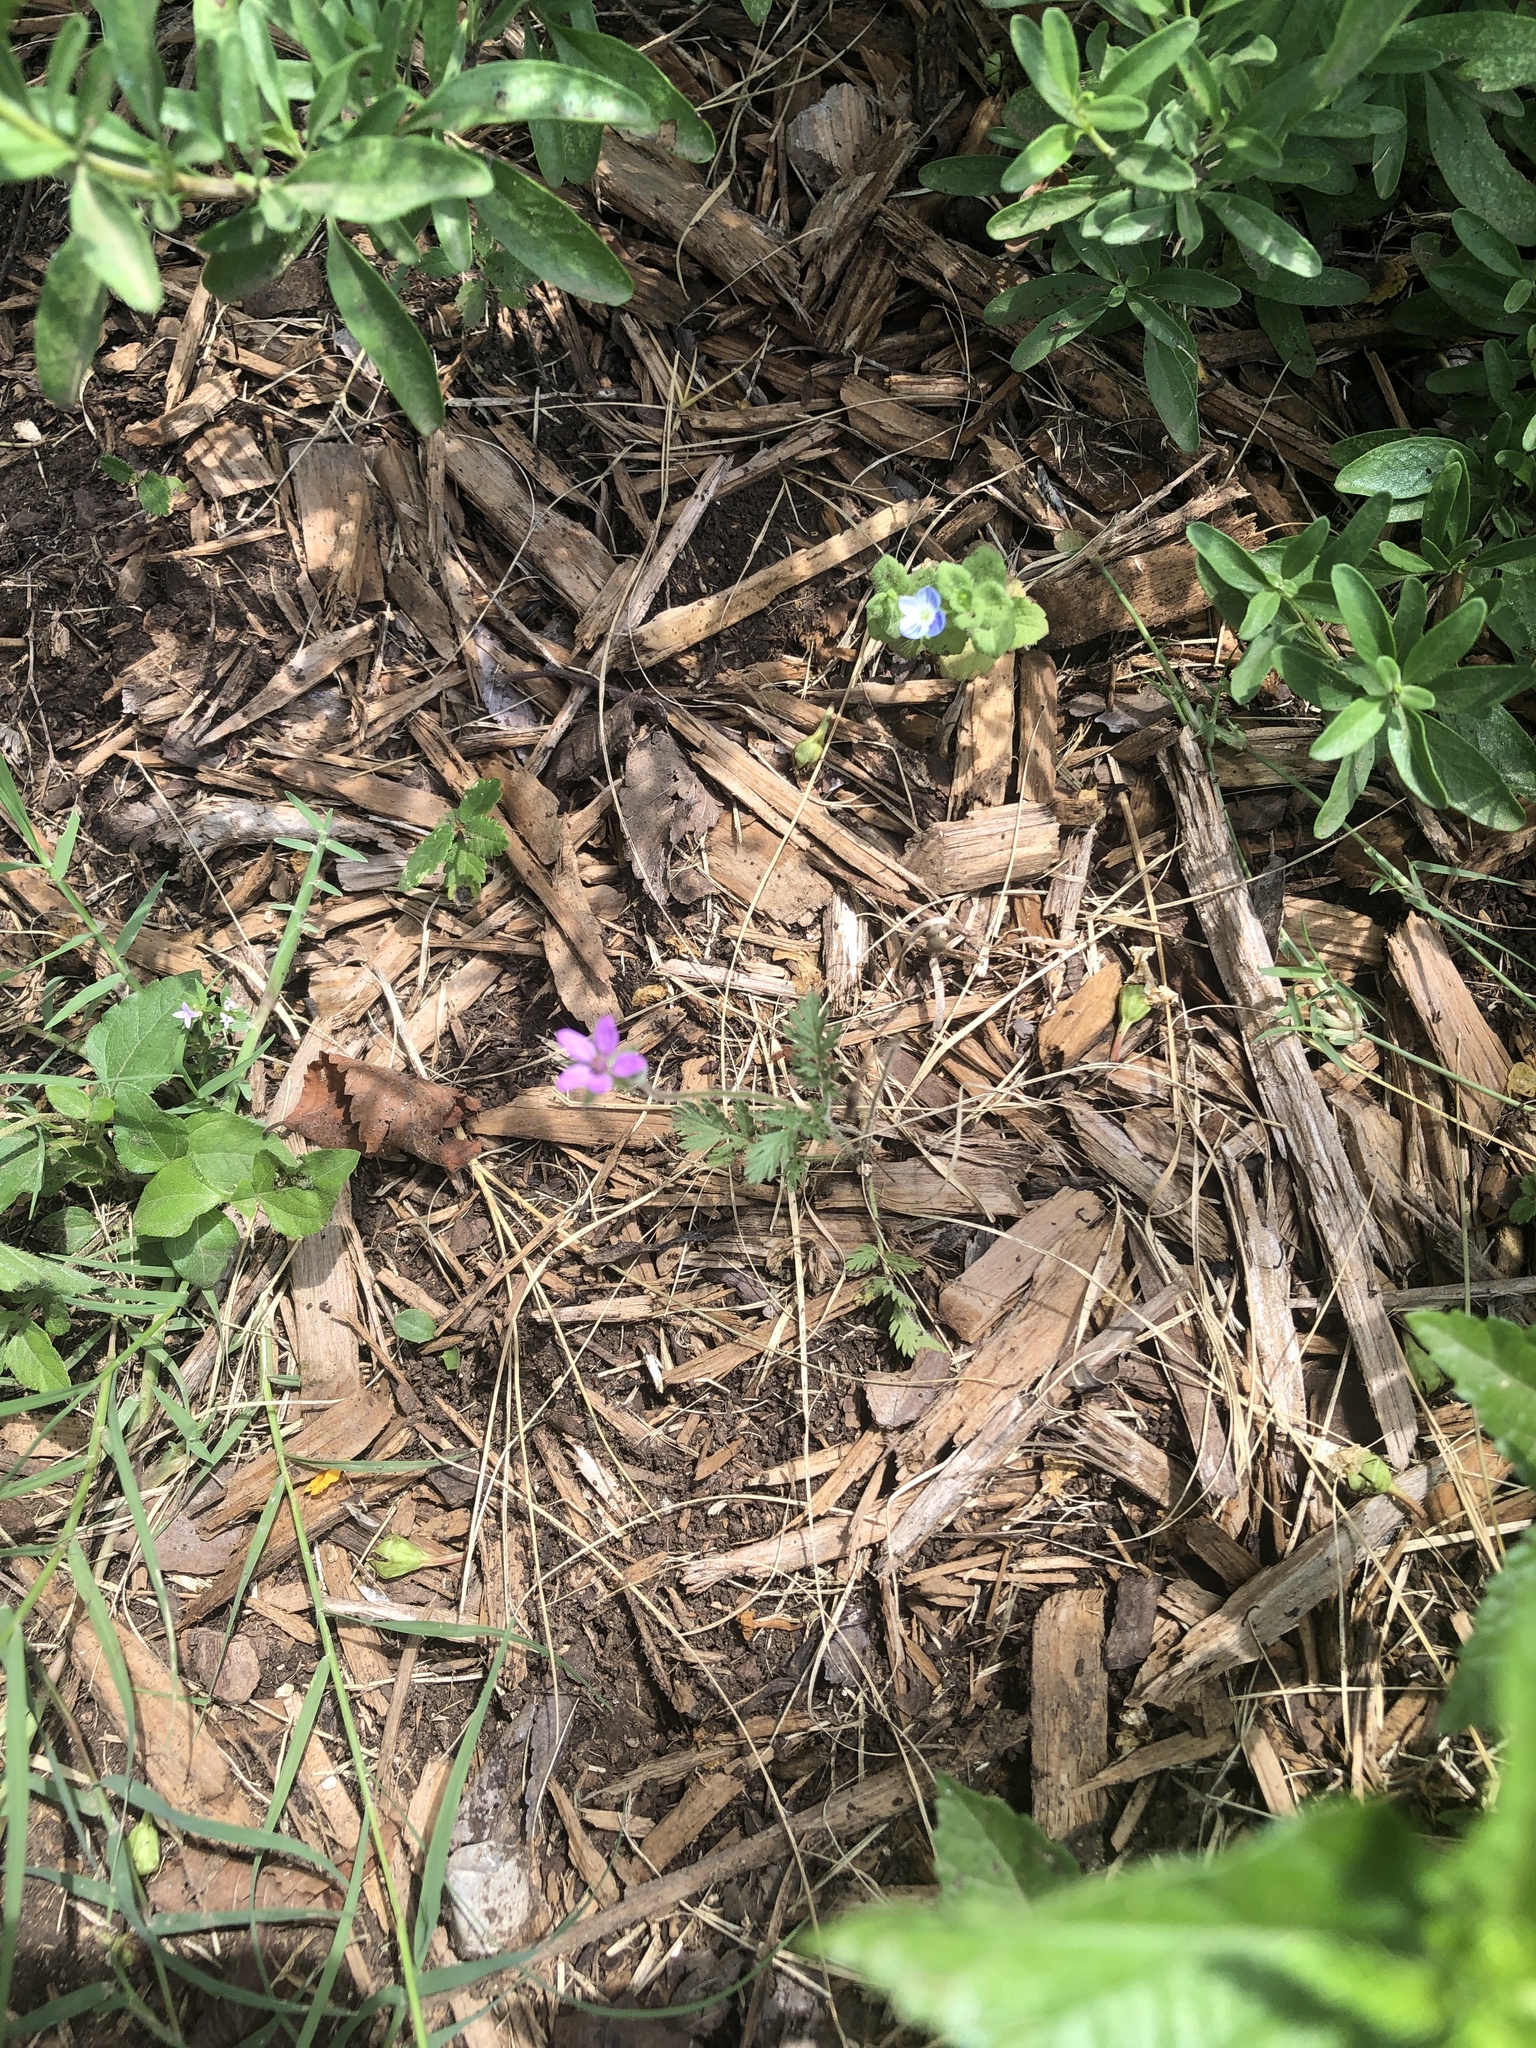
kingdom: Plantae
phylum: Tracheophyta
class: Magnoliopsida
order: Geraniales
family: Geraniaceae
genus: Erodium
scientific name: Erodium cicutarium
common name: Common stork's-bill
